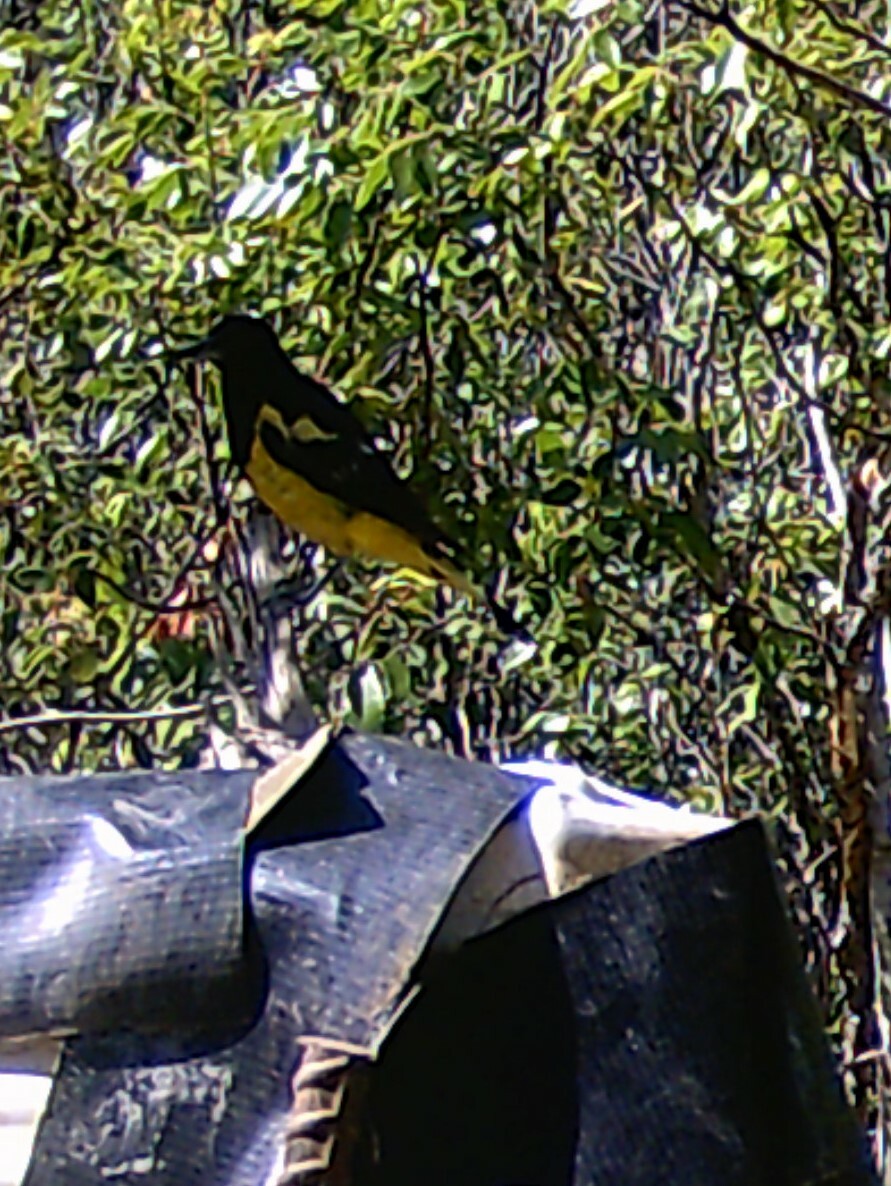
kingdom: Animalia
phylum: Chordata
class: Aves
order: Passeriformes
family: Icteridae
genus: Icterus
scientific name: Icterus parisorum
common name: Scott's oriole
